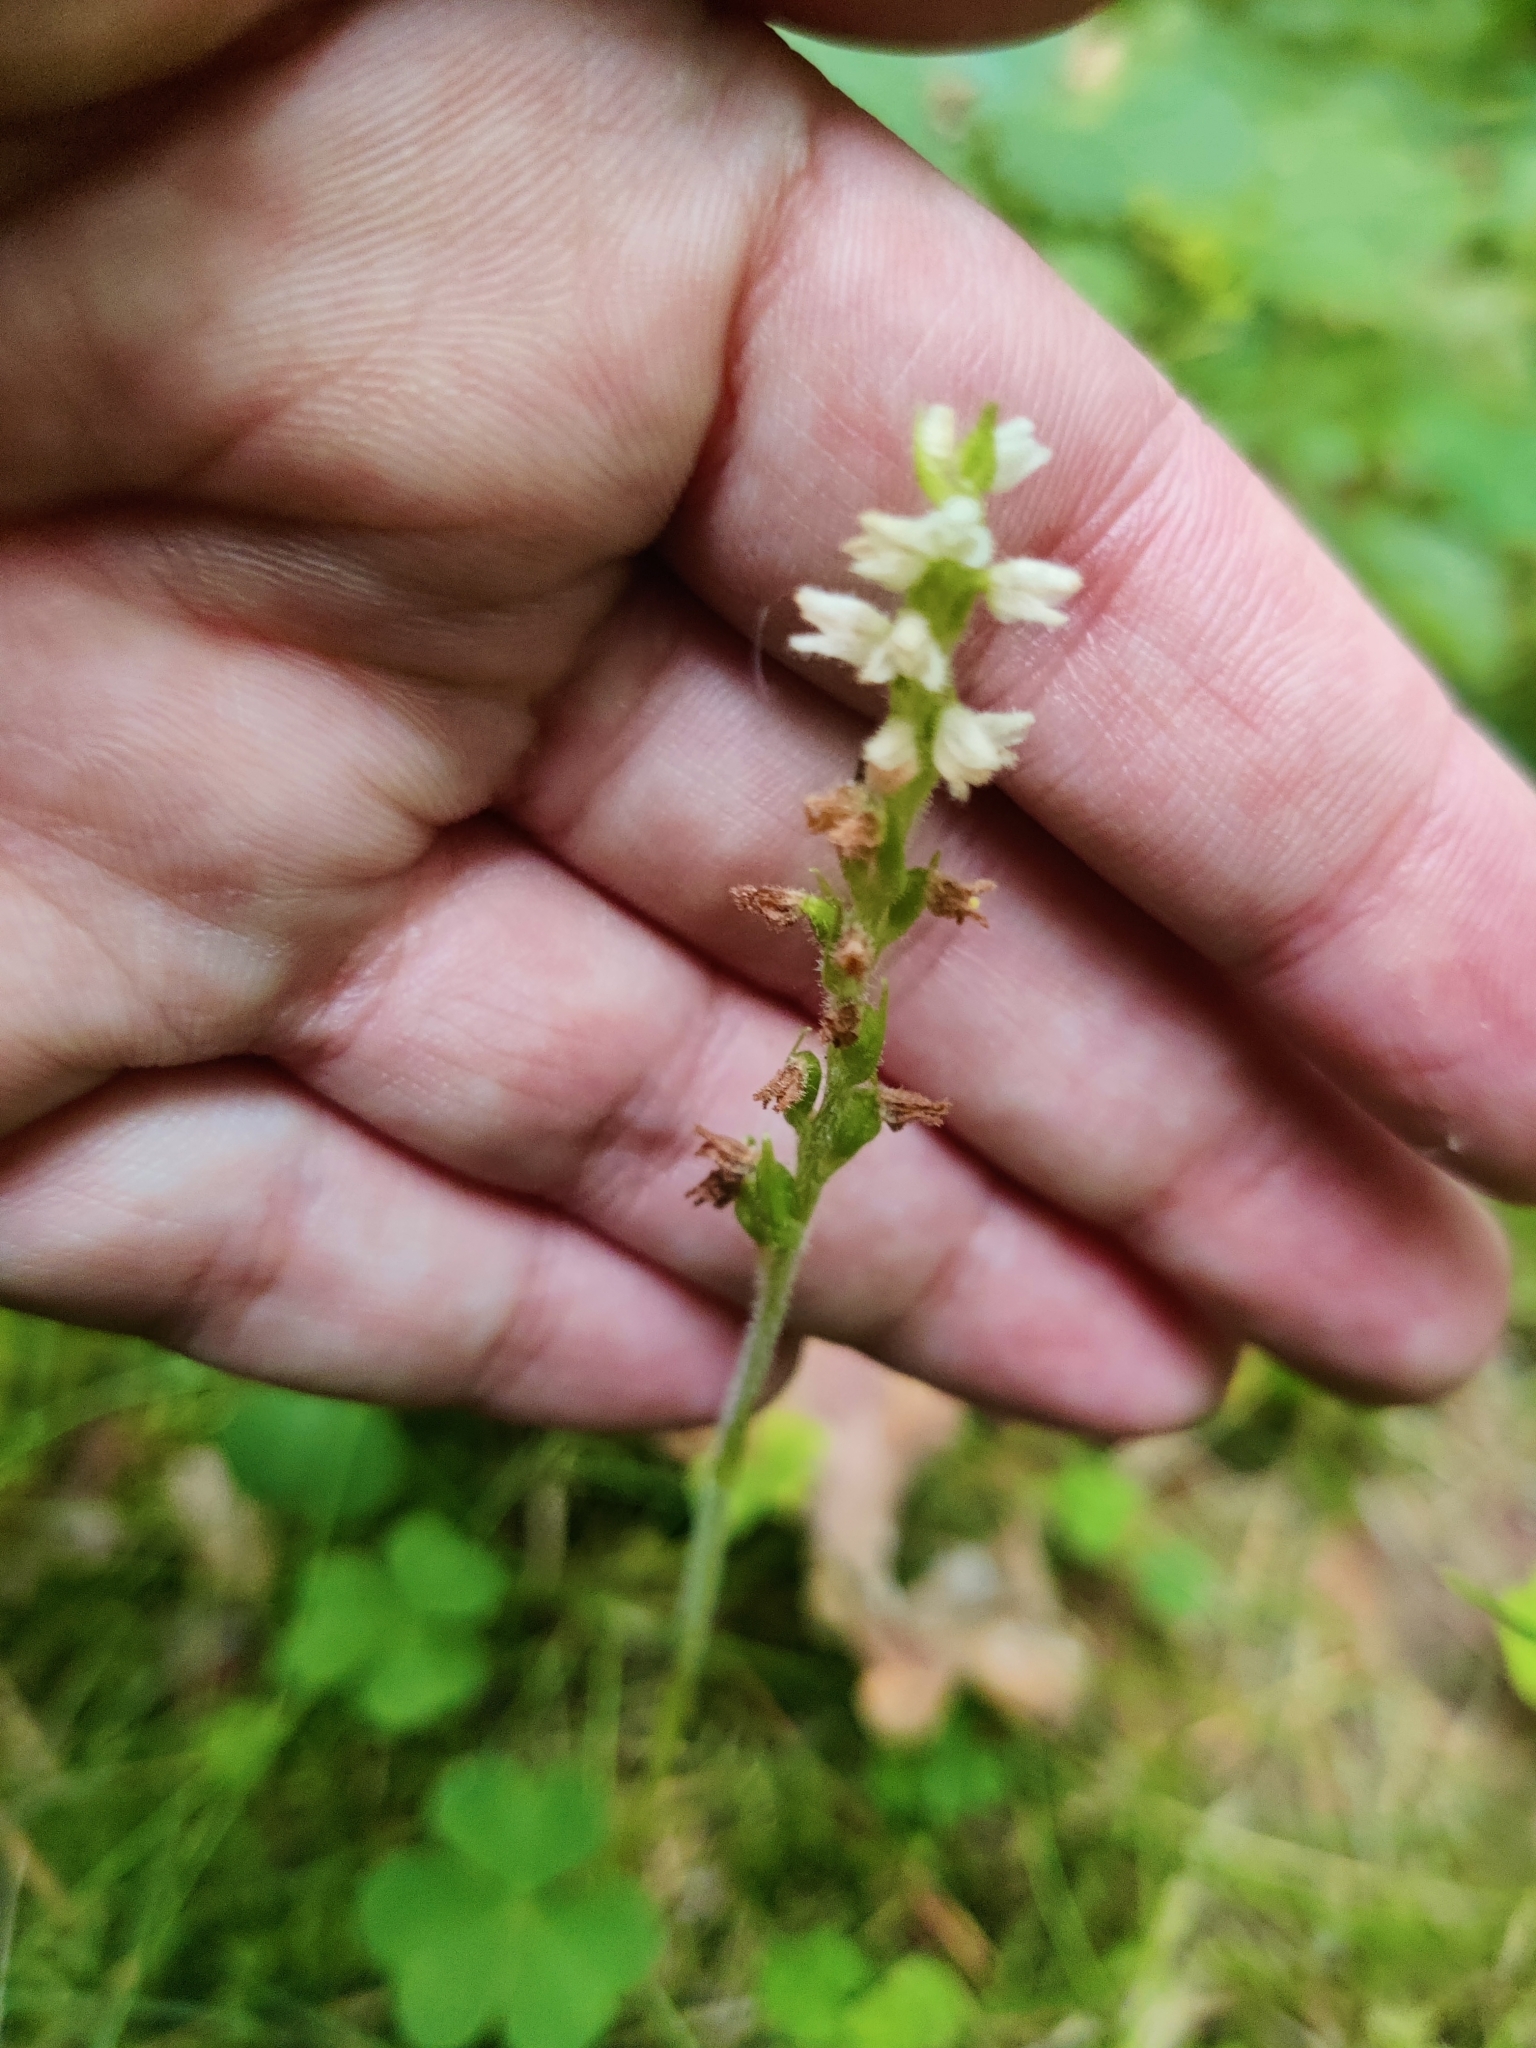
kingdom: Plantae
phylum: Tracheophyta
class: Liliopsida
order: Asparagales
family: Orchidaceae
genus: Goodyera
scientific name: Goodyera repens
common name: Creeping lady's-tresses
